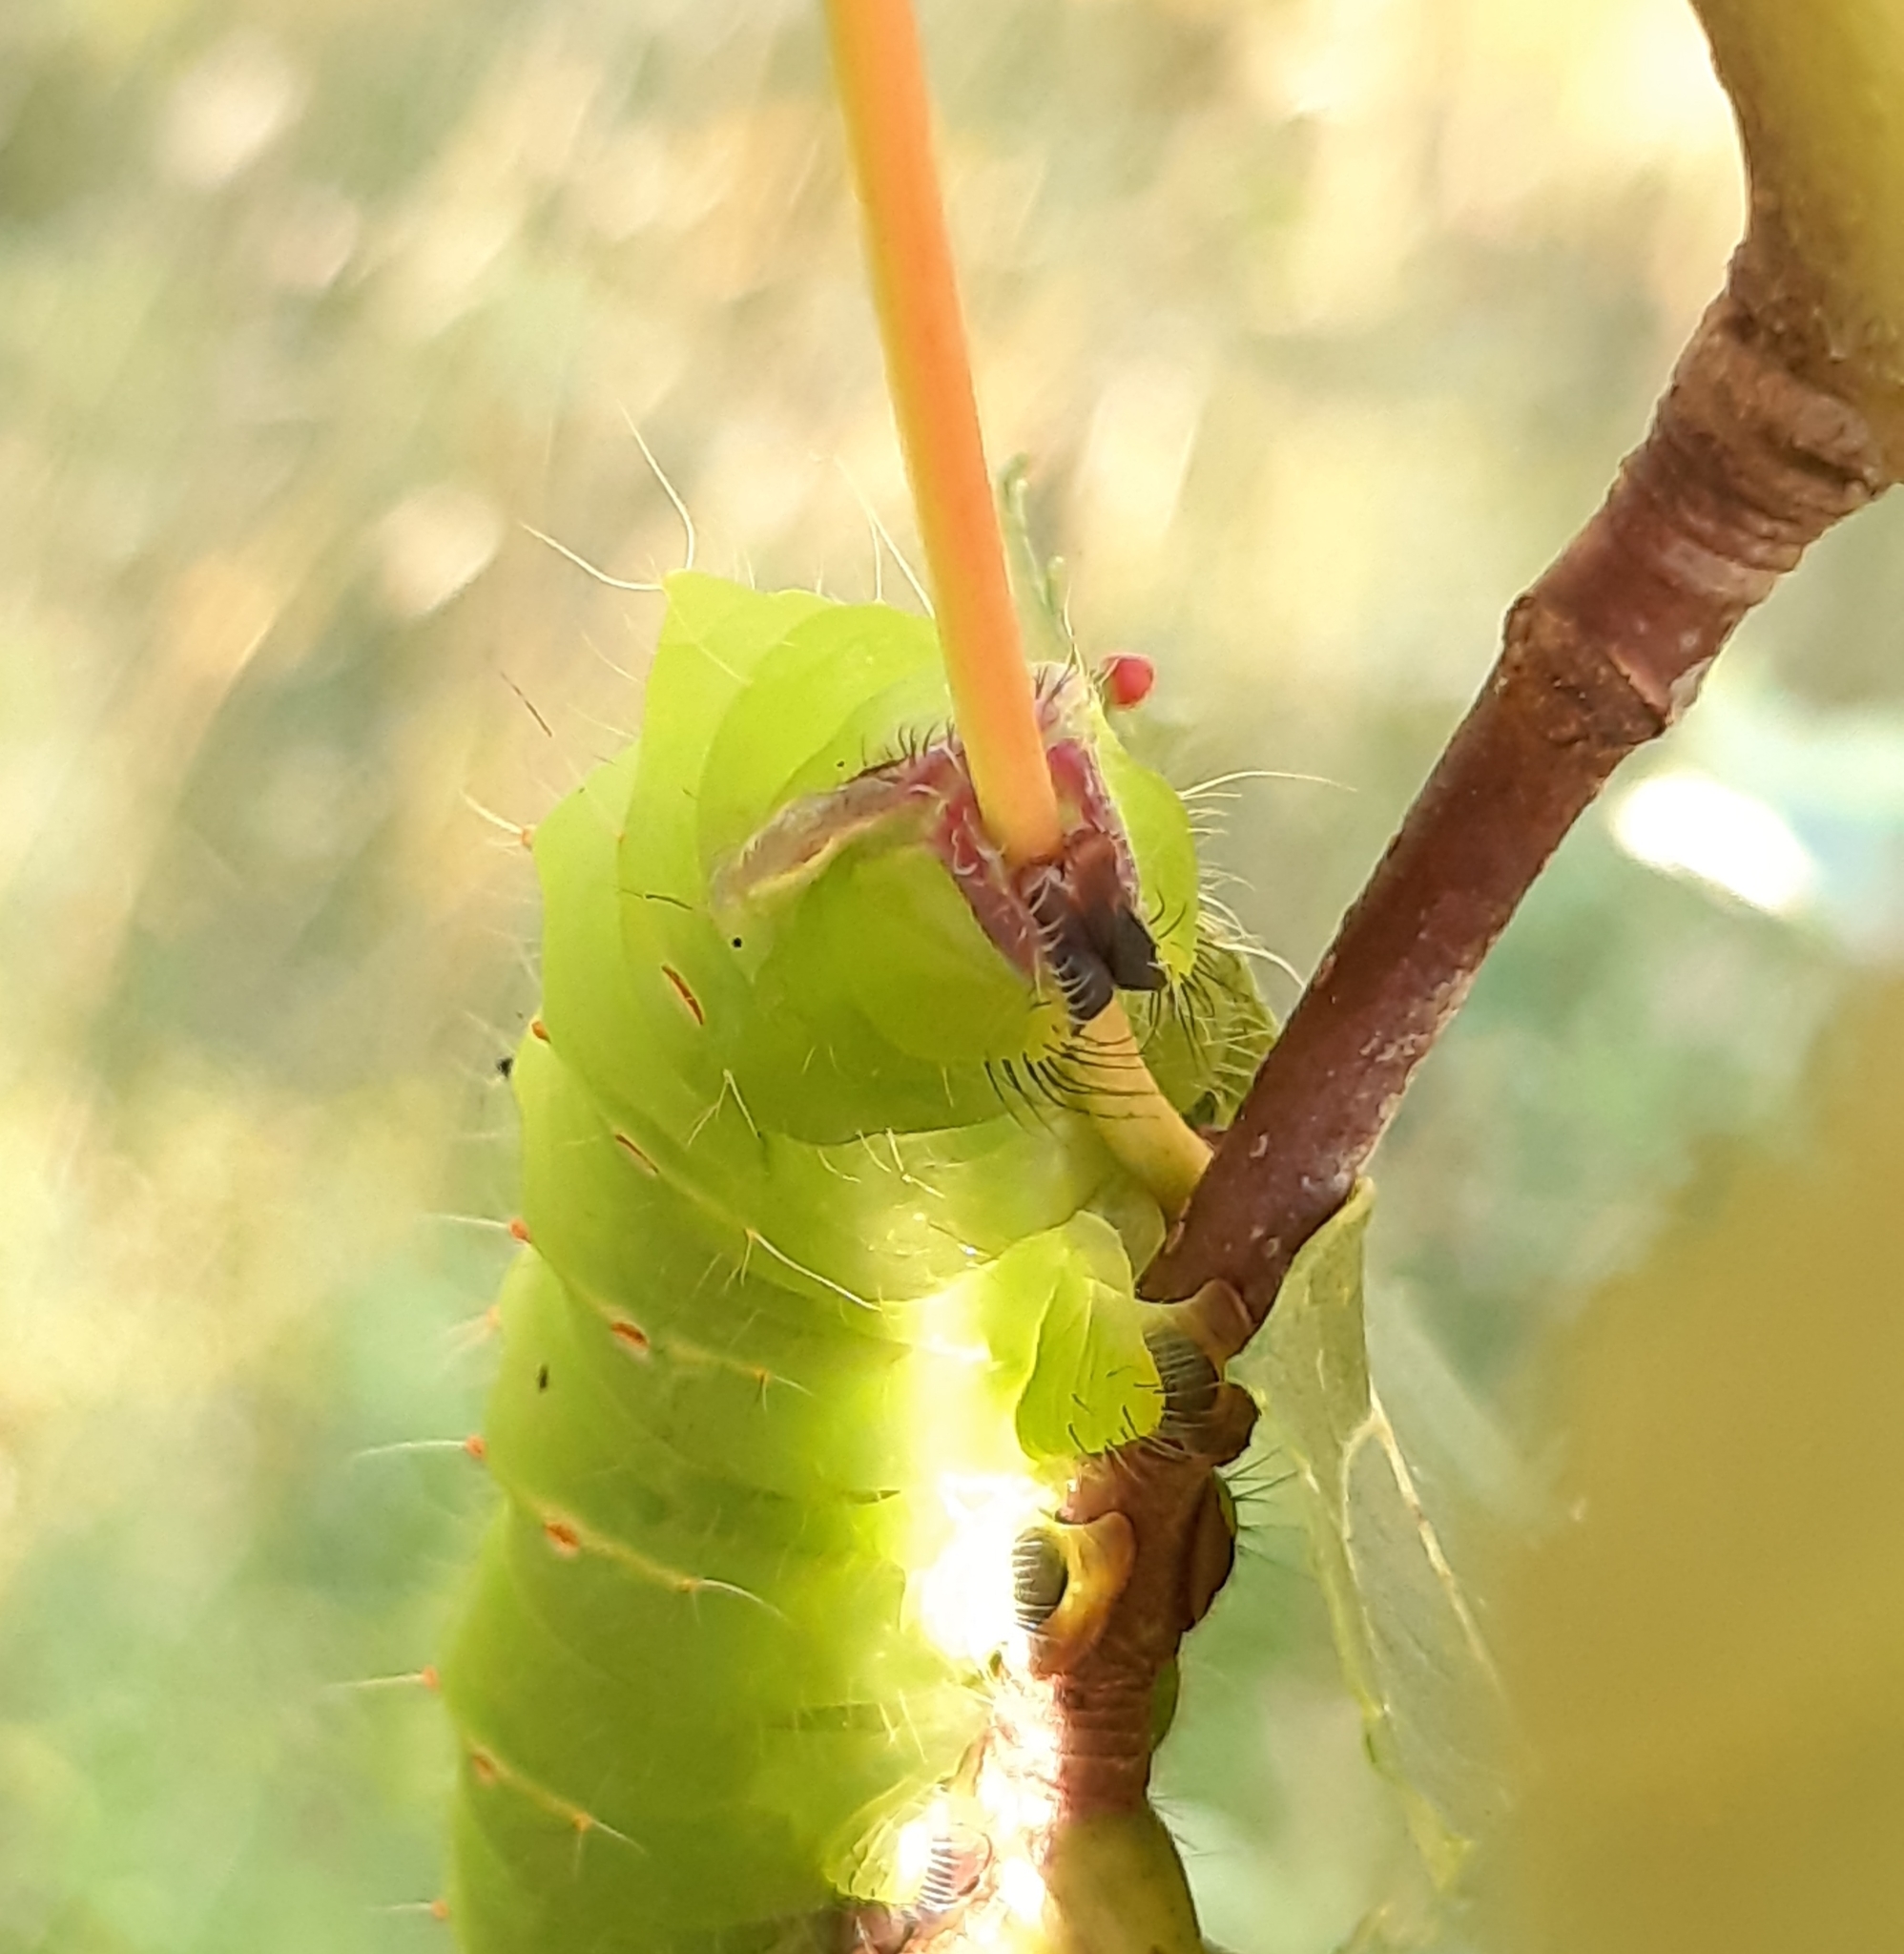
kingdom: Animalia
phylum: Arthropoda
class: Insecta
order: Lepidoptera
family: Saturniidae
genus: Antheraea
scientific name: Antheraea polyphemus
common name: Polyphemus moth
